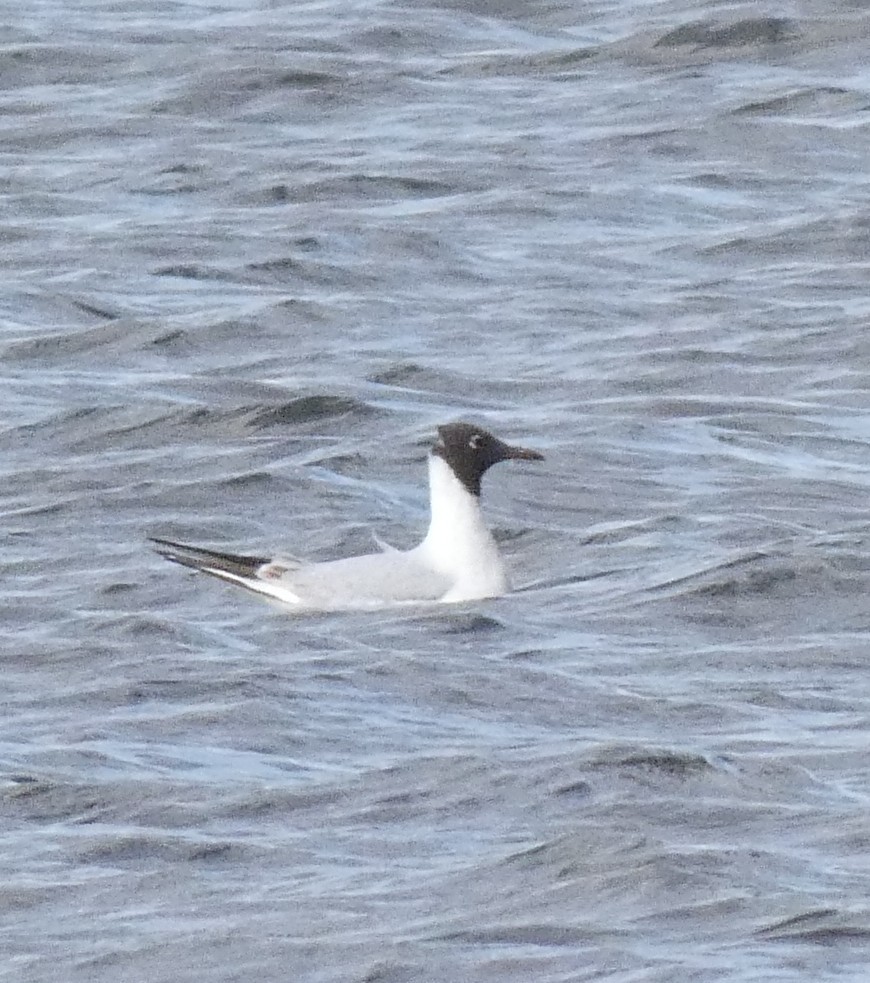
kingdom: Animalia
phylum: Chordata
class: Aves
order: Charadriiformes
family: Laridae
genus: Chroicocephalus
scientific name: Chroicocephalus ridibundus
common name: Black-headed gull
